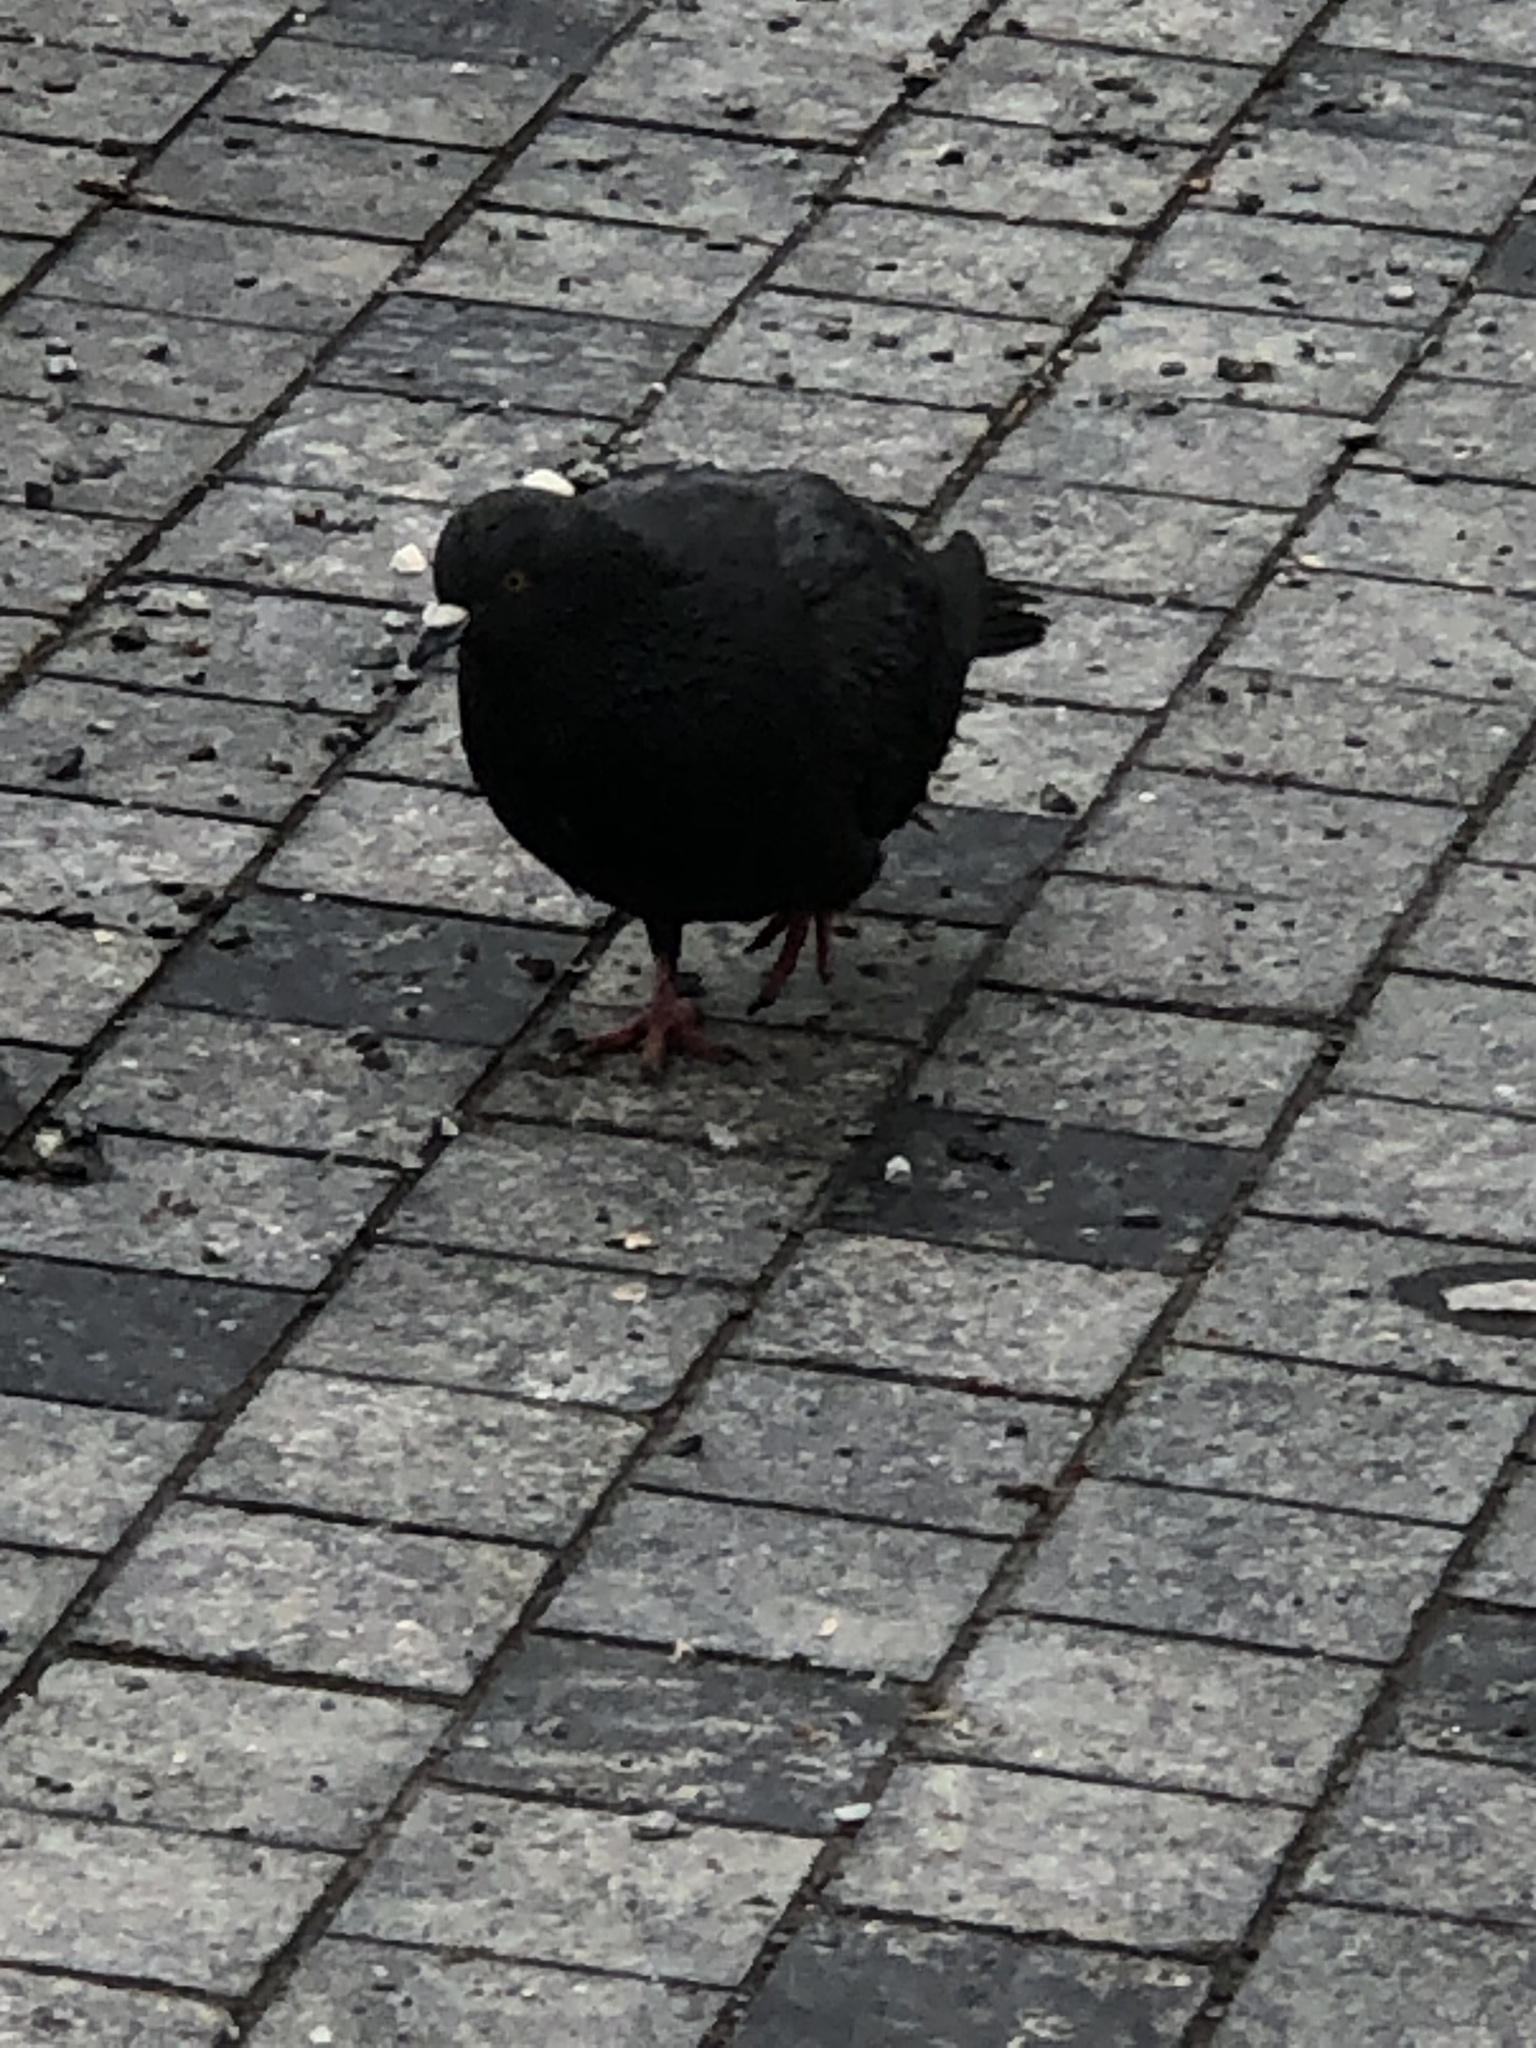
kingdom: Animalia
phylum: Chordata
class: Aves
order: Columbiformes
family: Columbidae
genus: Columba
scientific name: Columba livia
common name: Rock pigeon
